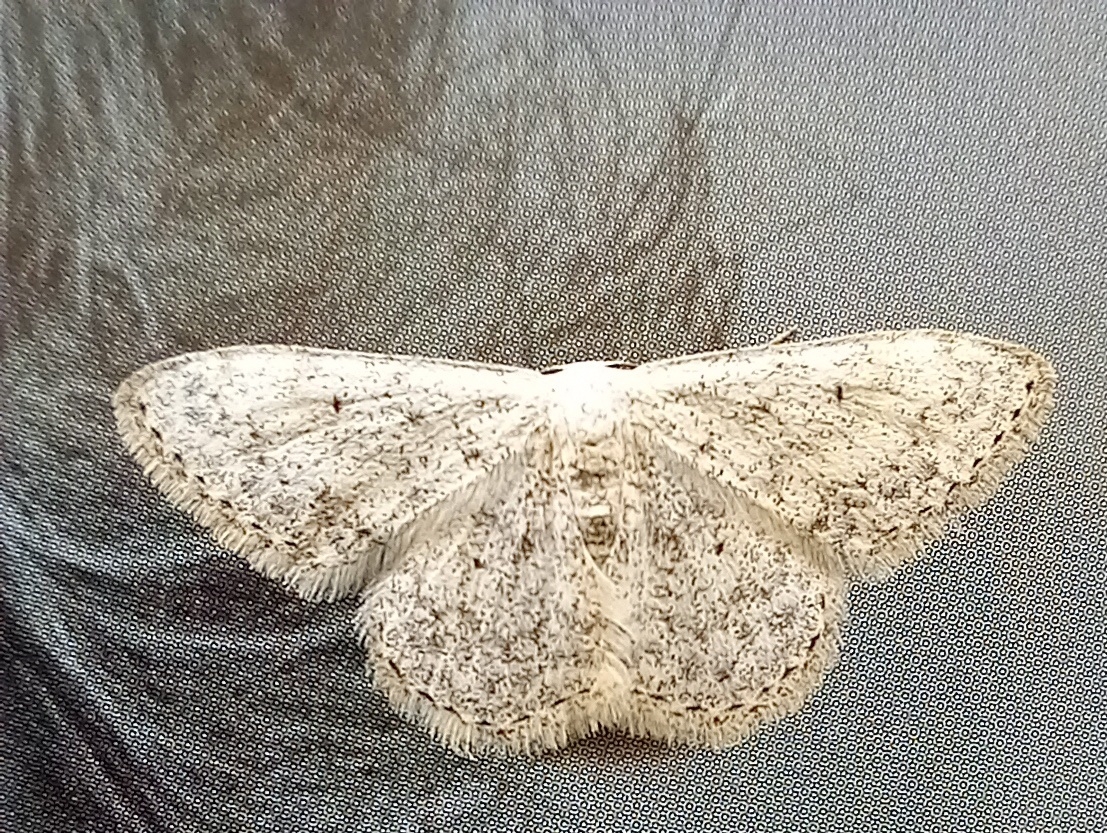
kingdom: Animalia
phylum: Arthropoda
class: Insecta
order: Lepidoptera
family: Geometridae
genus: Scopula
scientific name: Scopula marginepunctata
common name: Mullein wave
